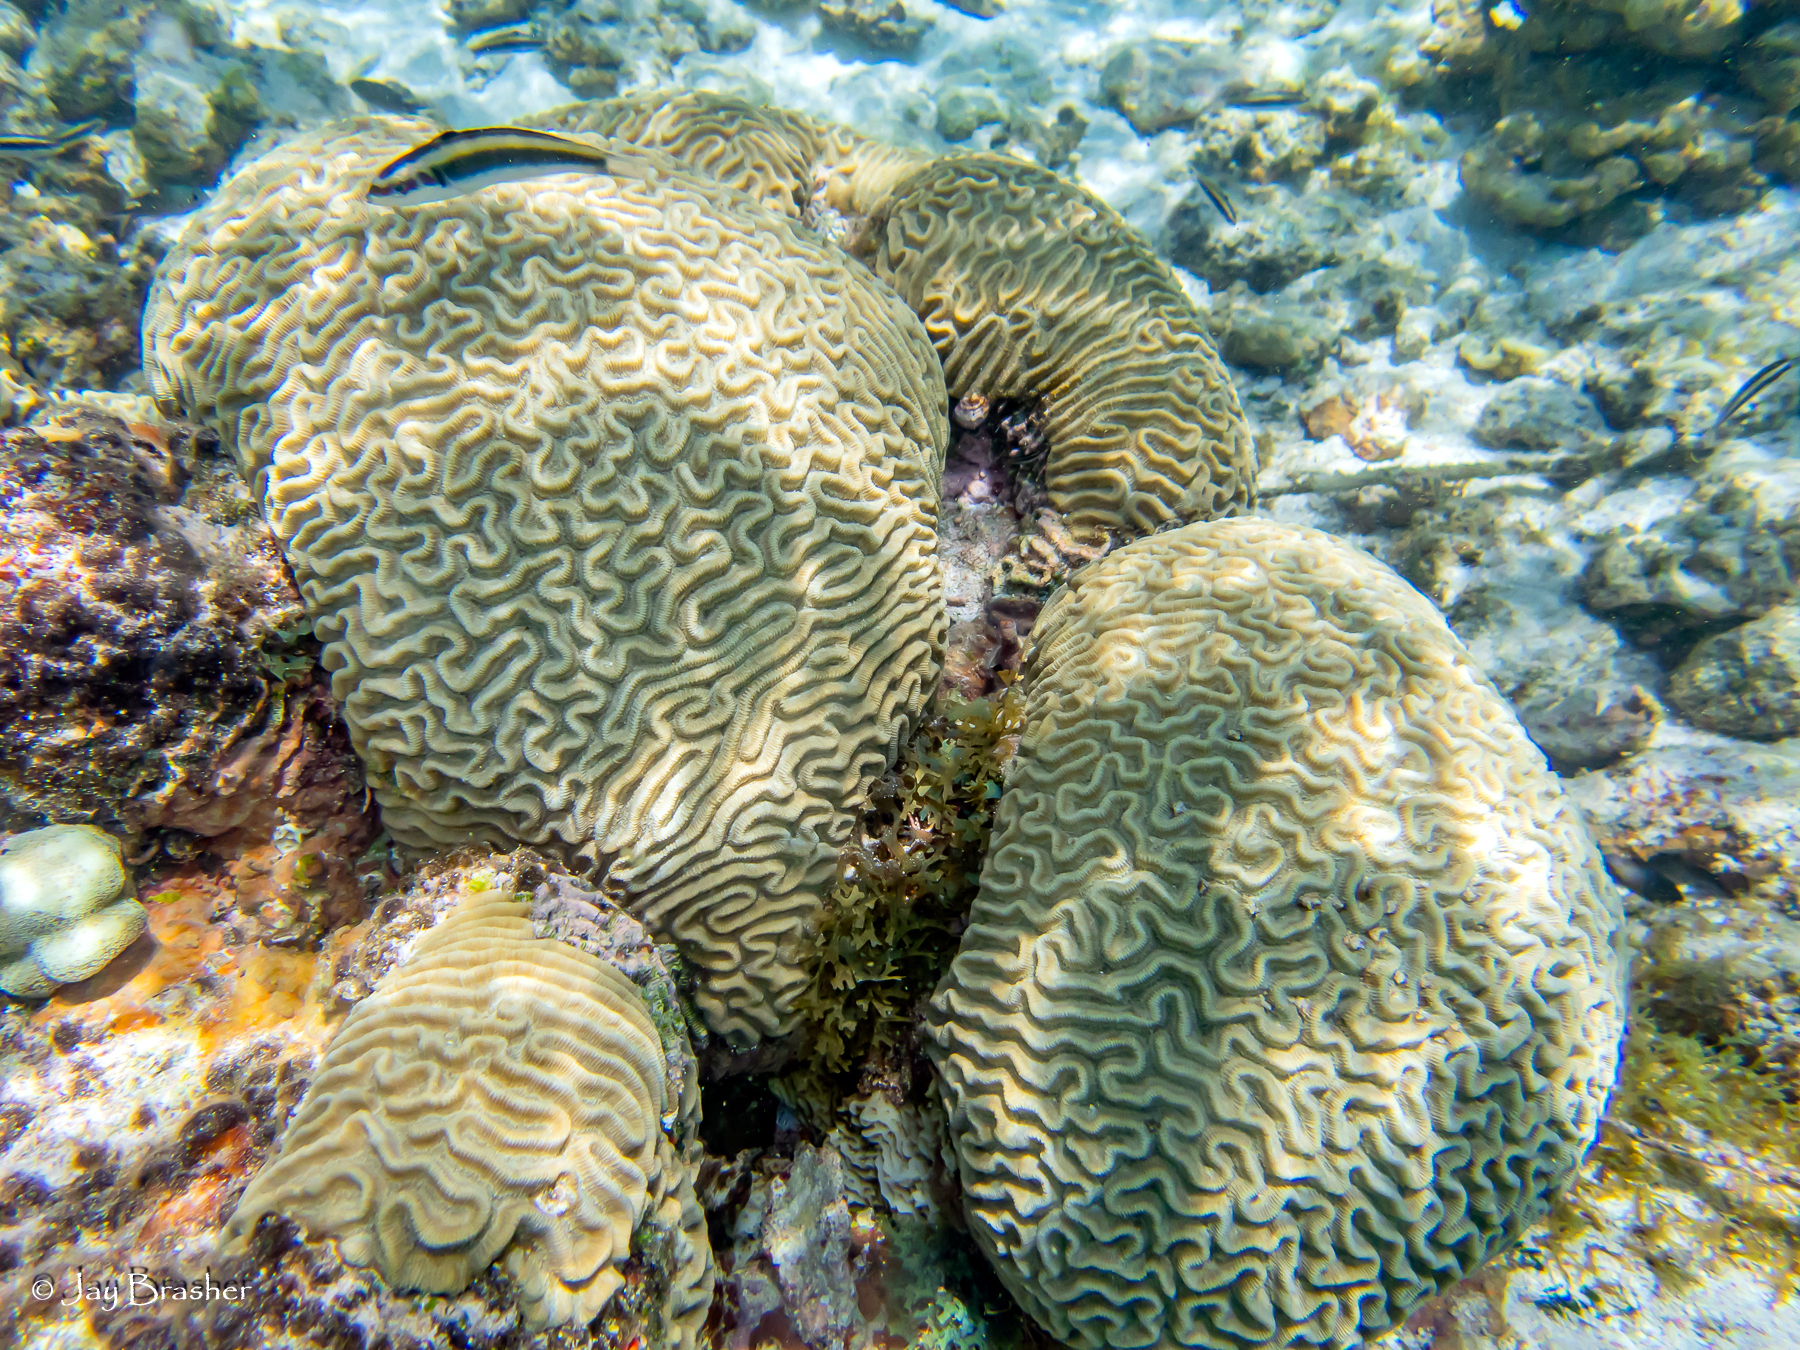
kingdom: Animalia
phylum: Cnidaria
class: Anthozoa
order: Scleractinia
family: Faviidae
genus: Pseudodiploria
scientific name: Pseudodiploria strigosa
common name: Symmetrical brain coral
